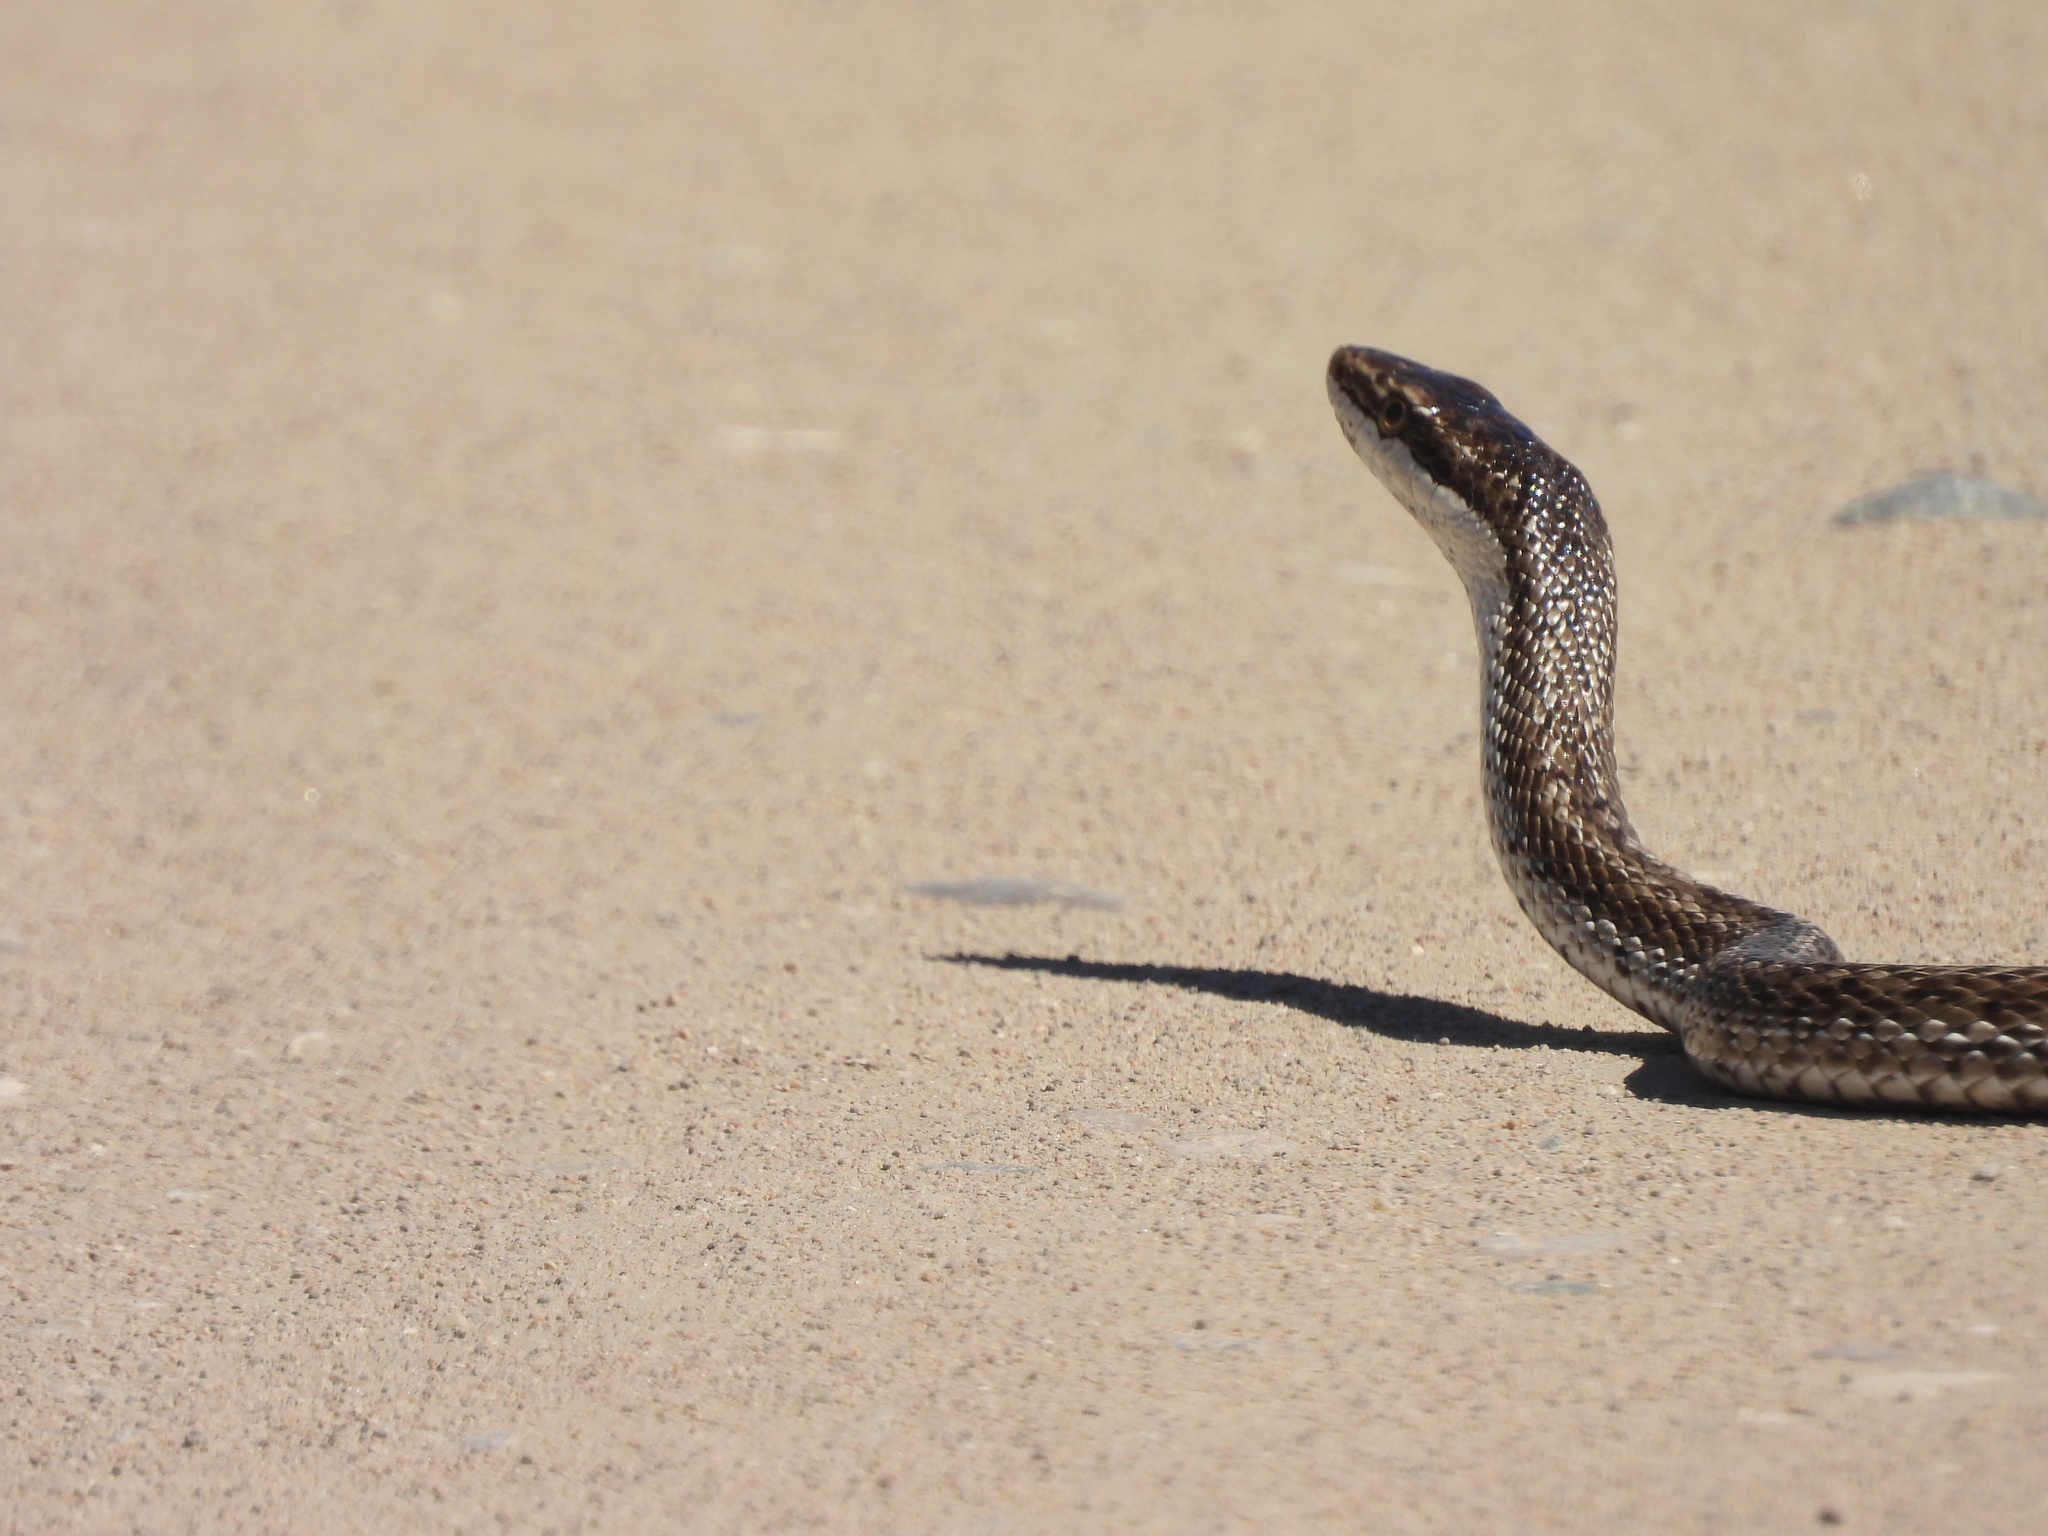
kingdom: Animalia
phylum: Chordata
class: Squamata
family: Colubridae
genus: Philodryas
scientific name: Philodryas trilineata
